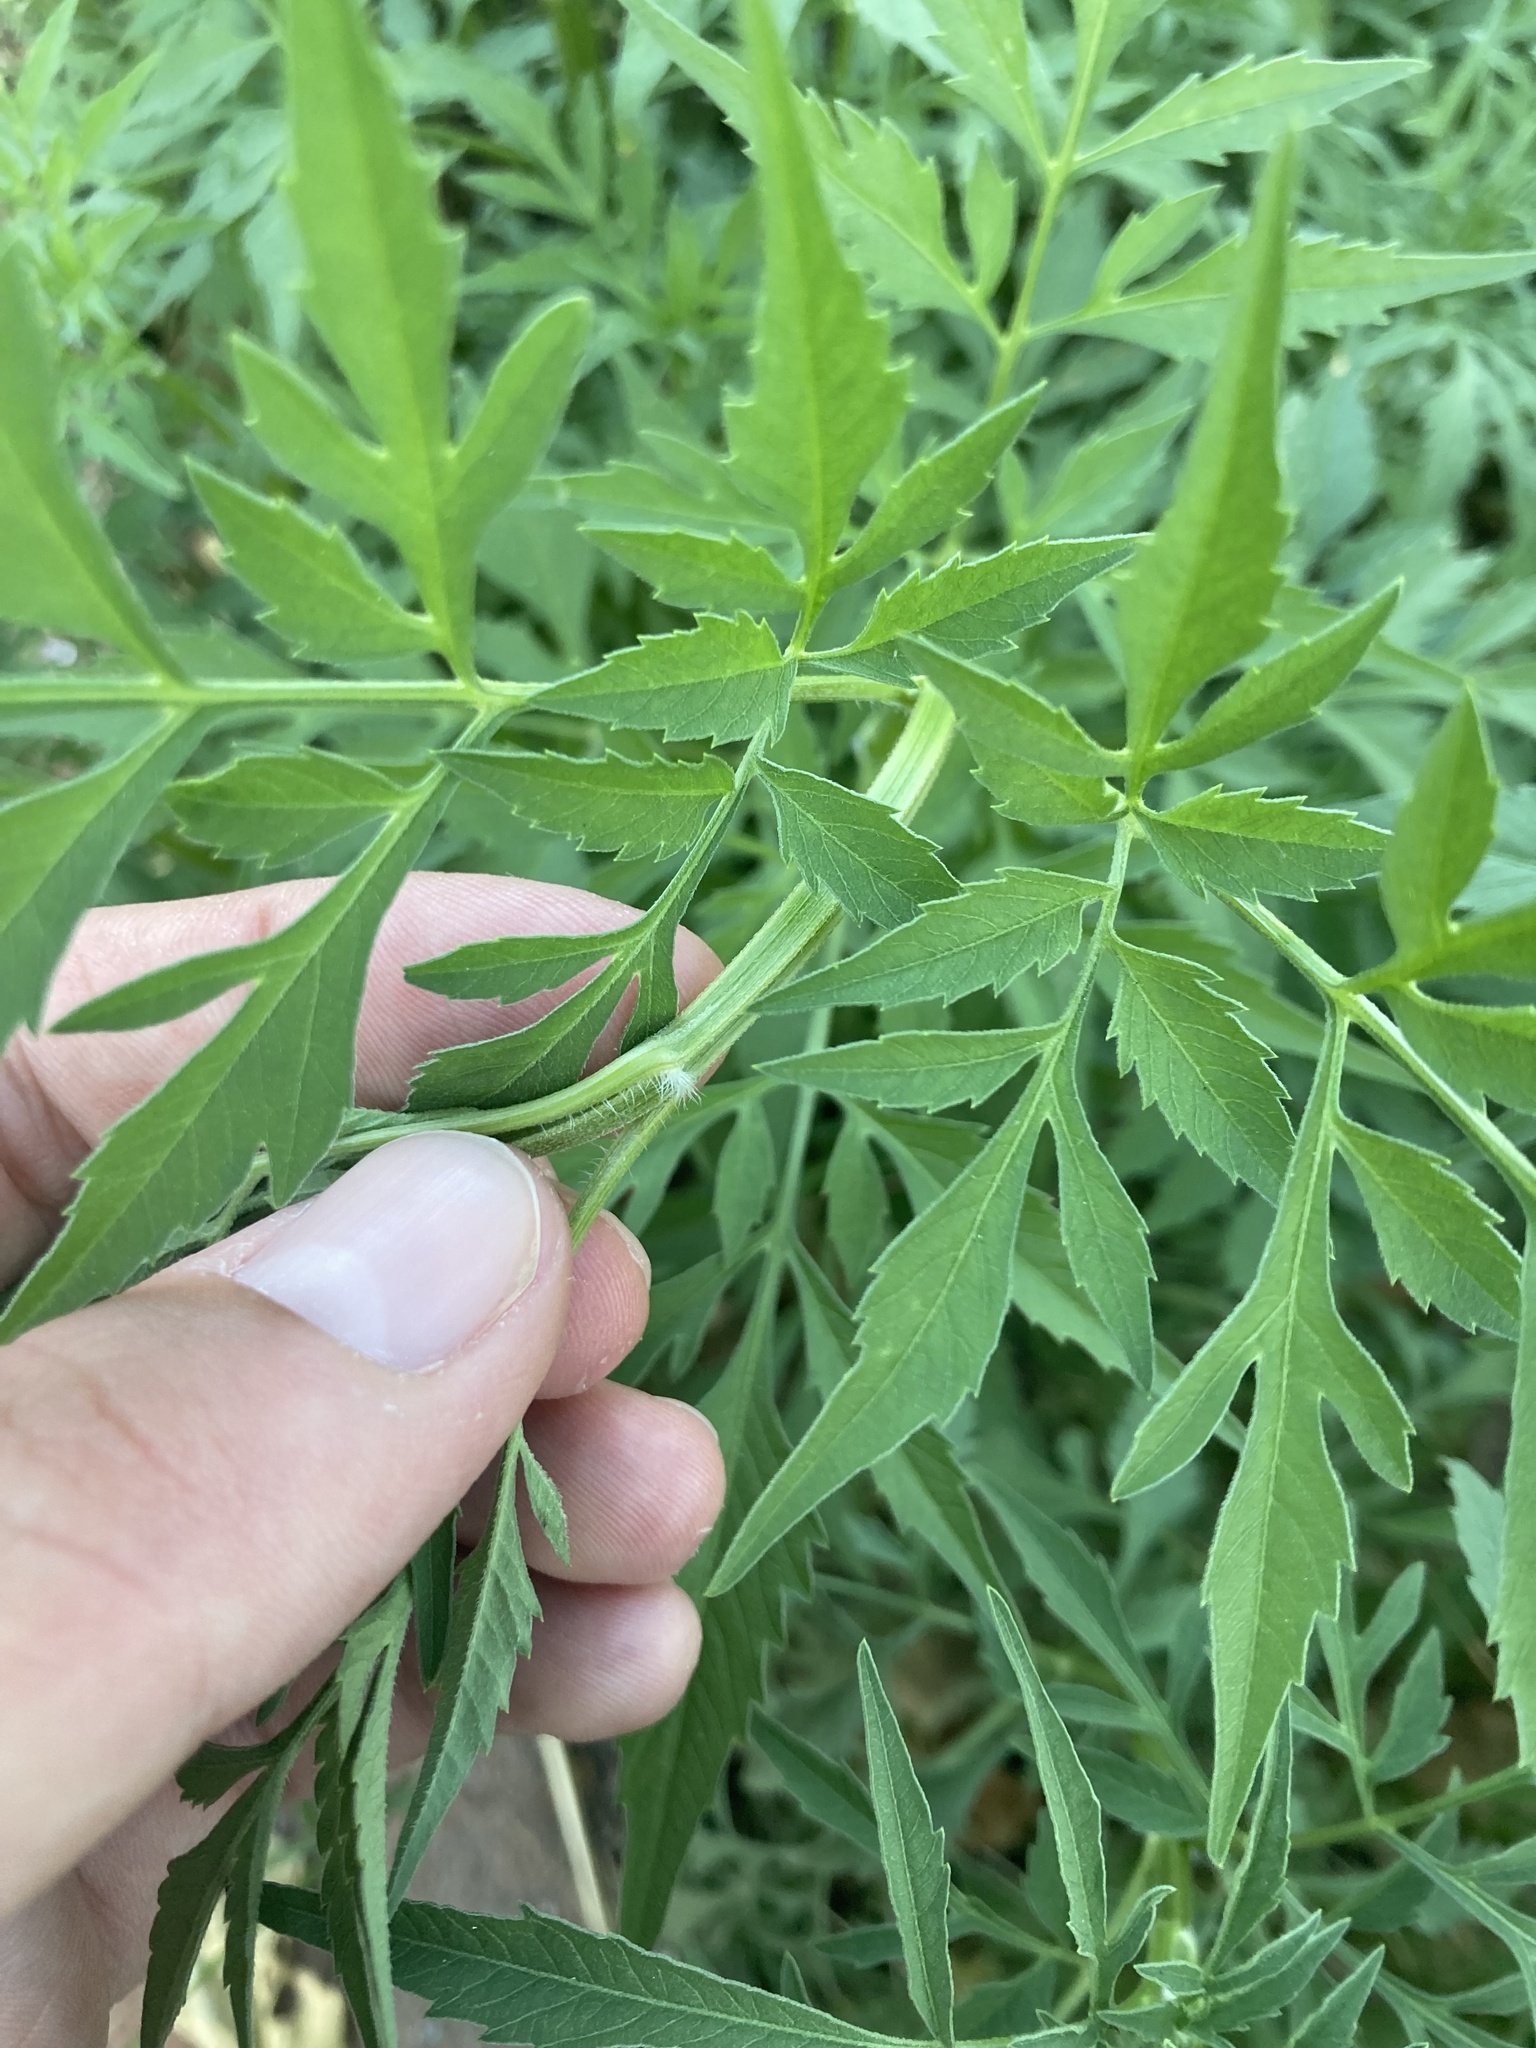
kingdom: Plantae
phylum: Tracheophyta
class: Magnoliopsida
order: Asterales
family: Asteraceae
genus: Bidens
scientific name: Bidens subalternans
